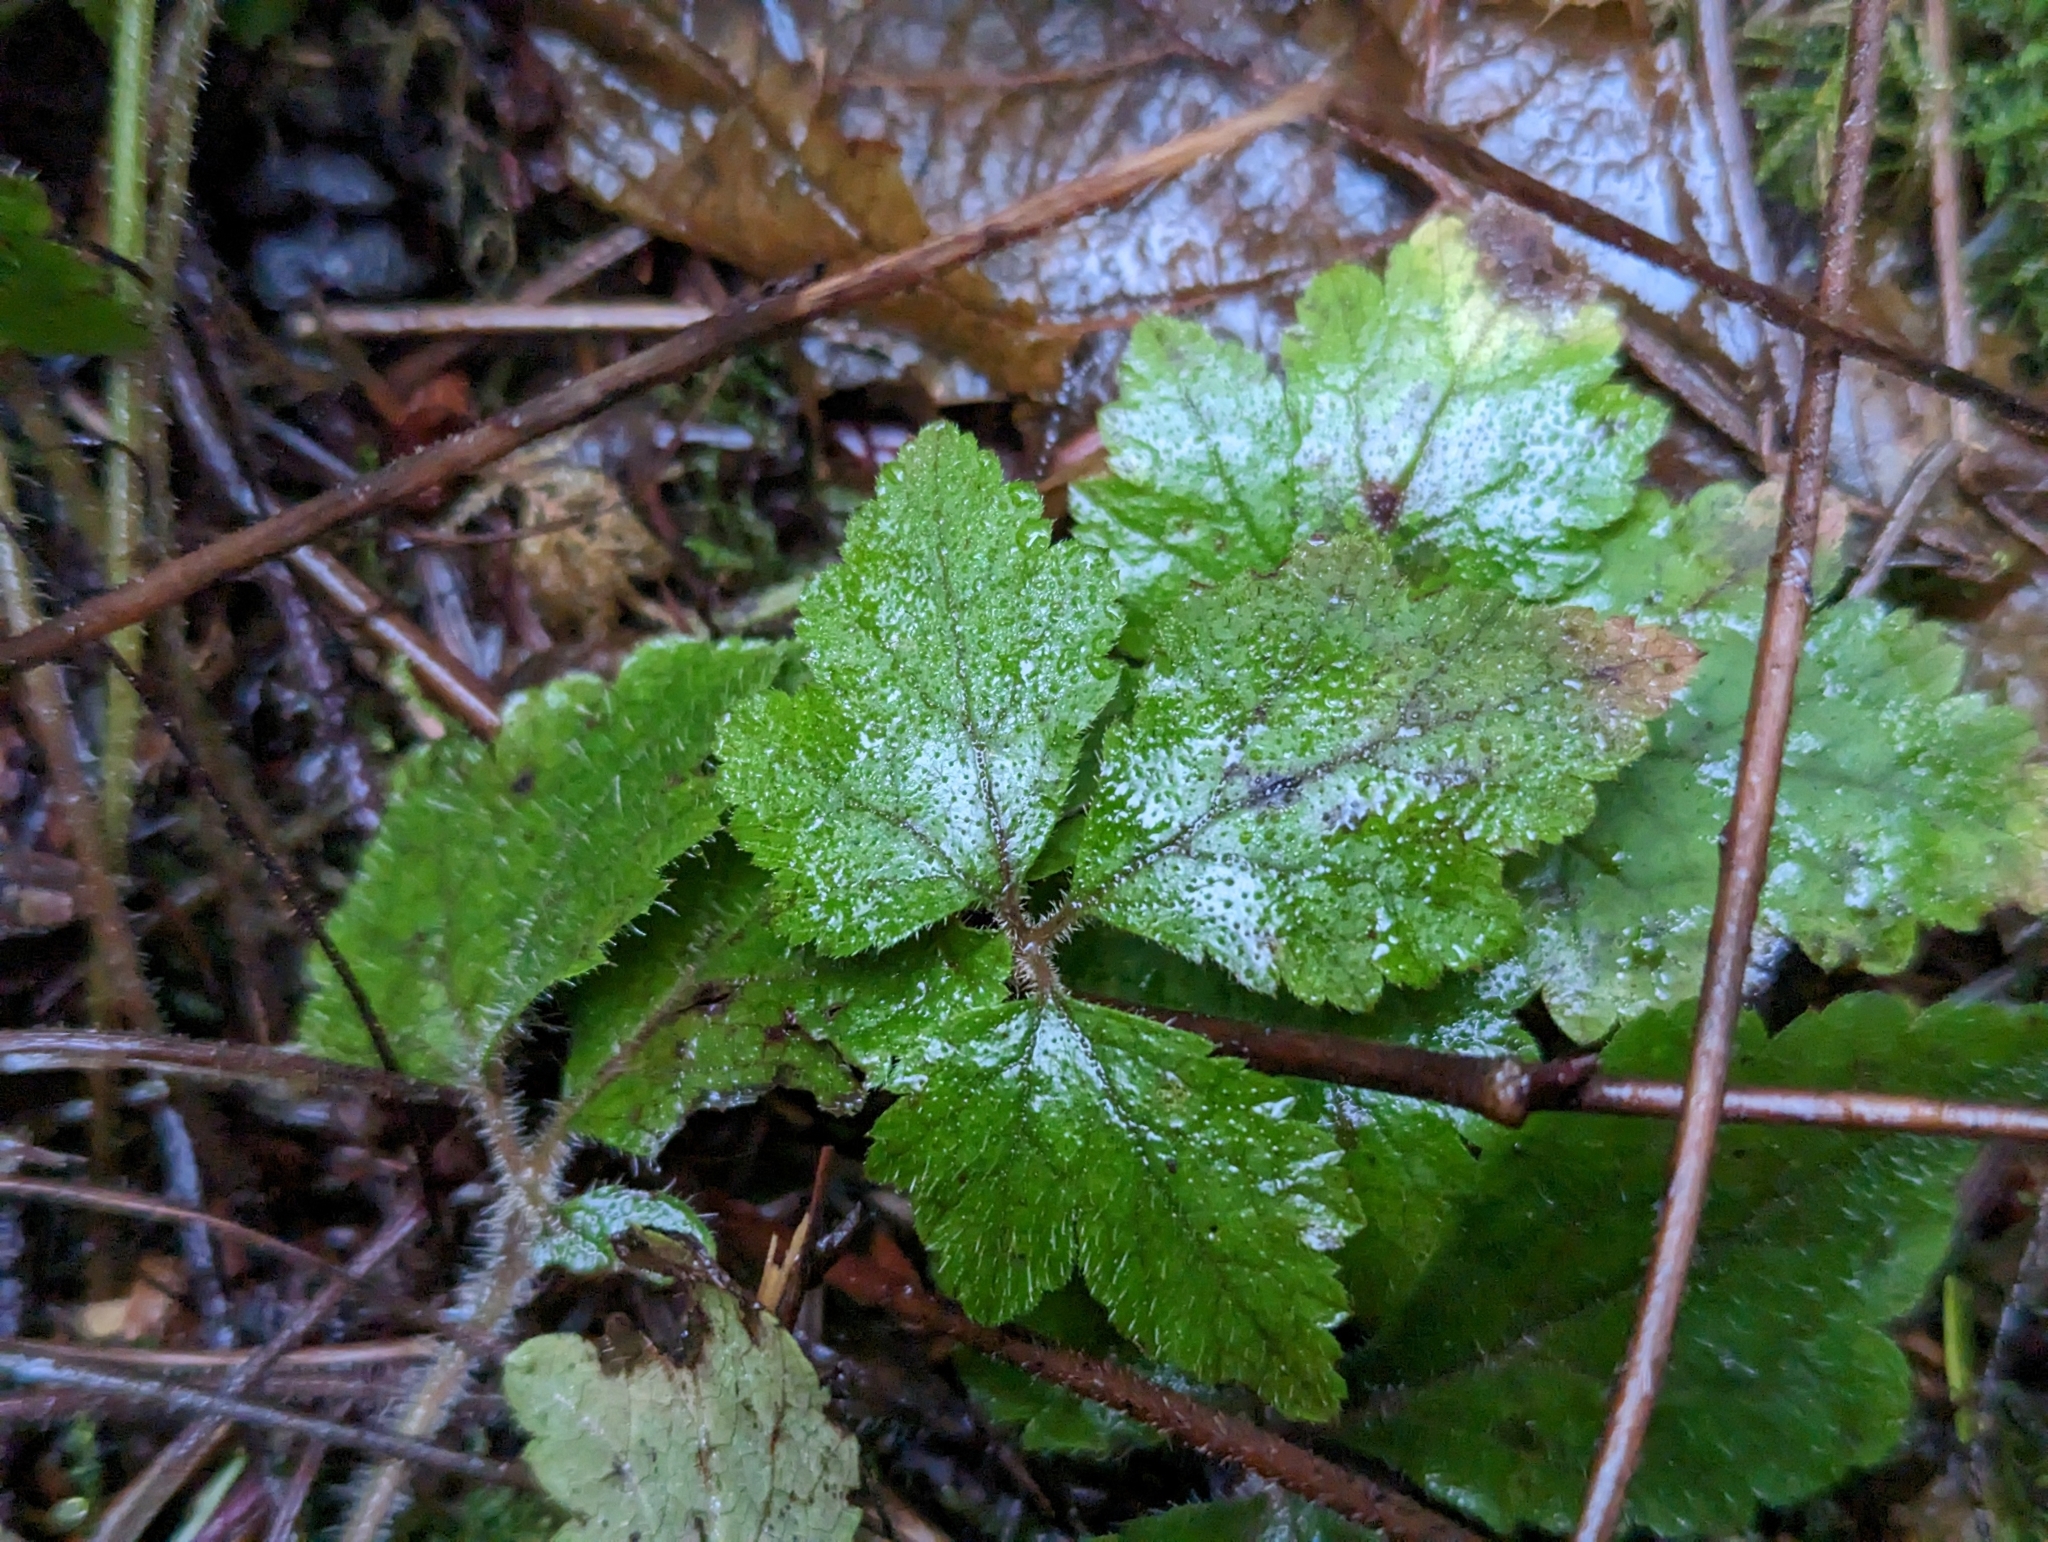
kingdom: Plantae
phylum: Tracheophyta
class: Magnoliopsida
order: Saxifragales
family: Saxifragaceae
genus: Tiarella
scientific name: Tiarella trifoliata
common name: Sugar-scoop
